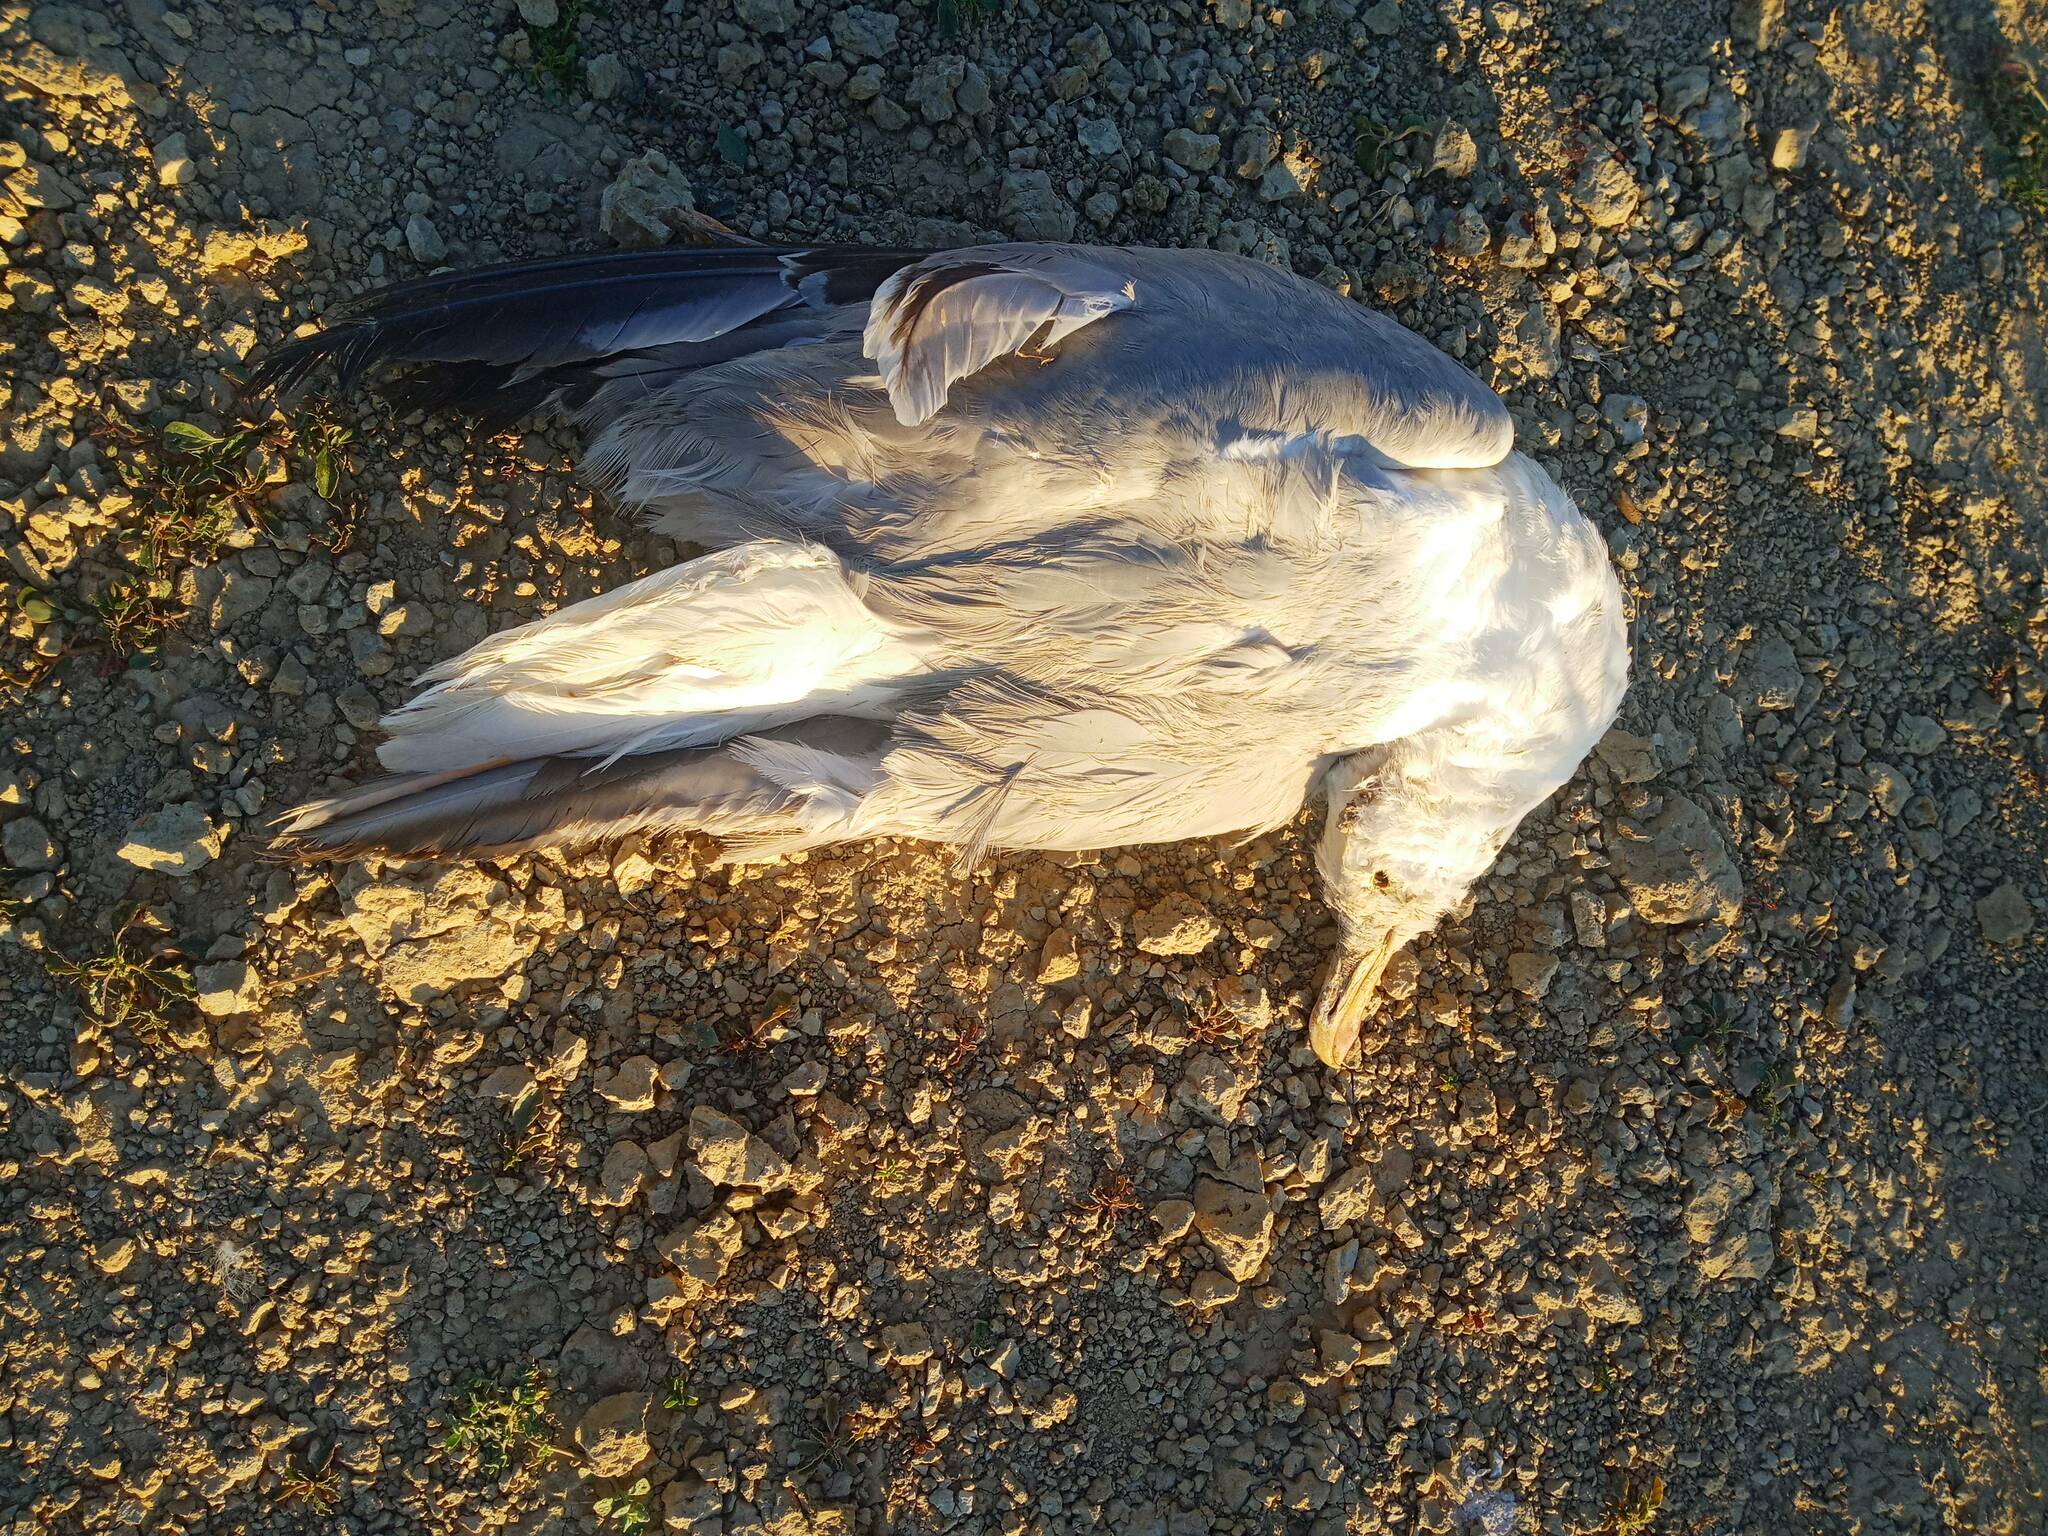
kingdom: Animalia
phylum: Chordata
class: Aves
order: Charadriiformes
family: Laridae
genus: Larus
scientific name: Larus michahellis
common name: Yellow-legged gull
